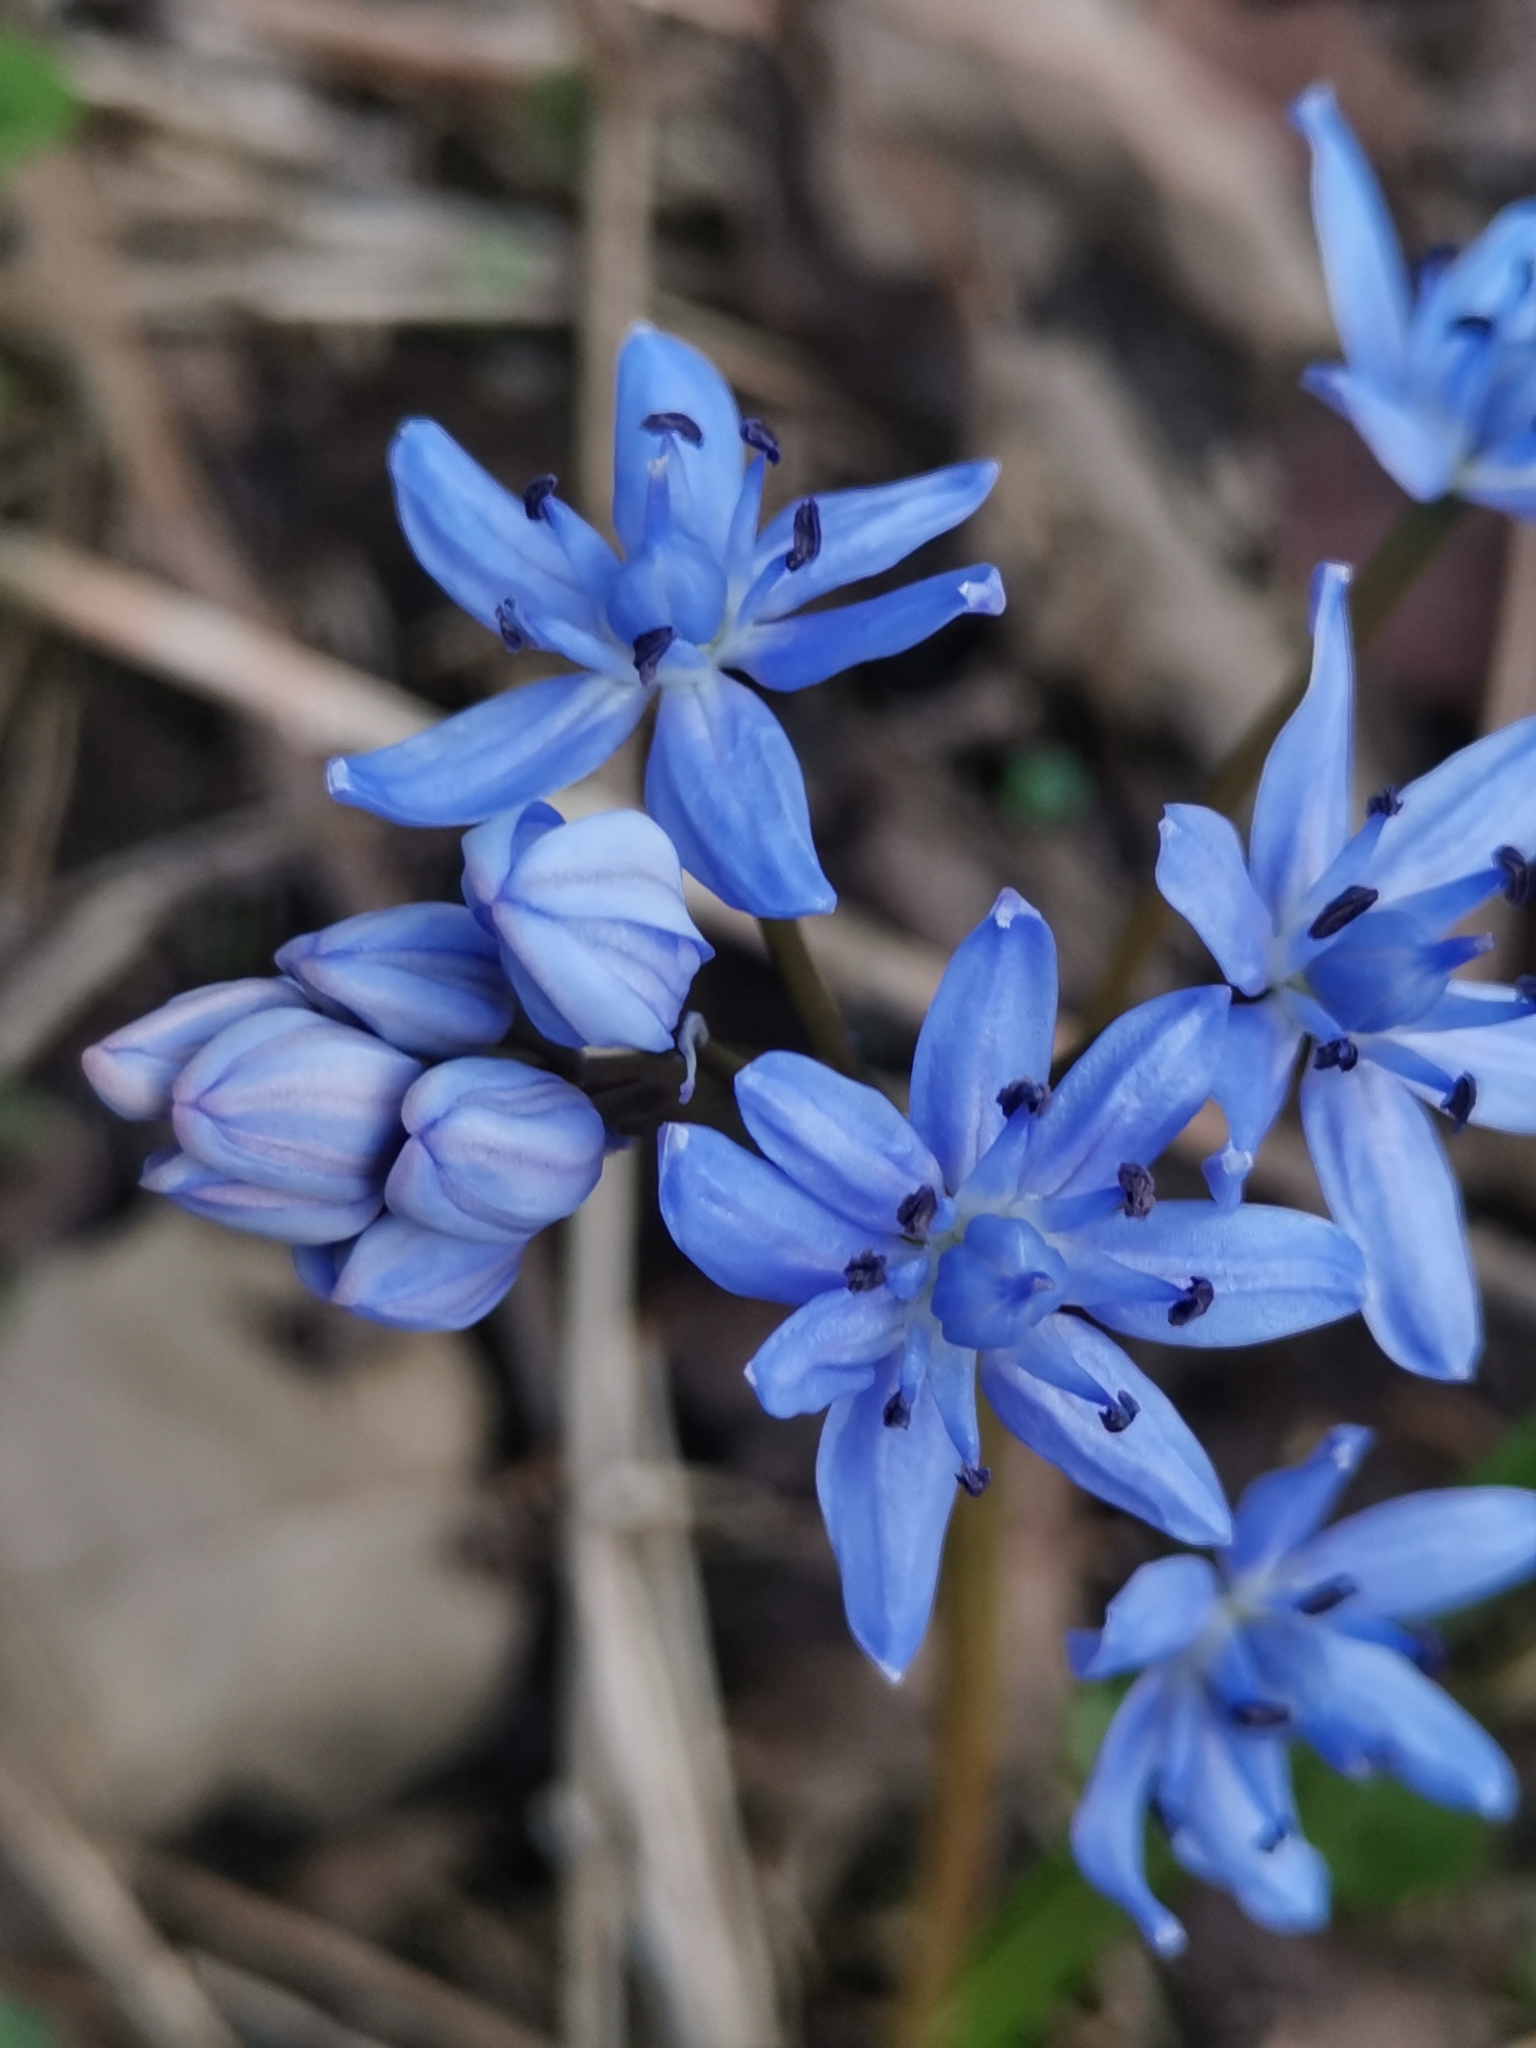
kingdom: Plantae
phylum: Tracheophyta
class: Liliopsida
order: Asparagales
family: Asparagaceae
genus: Scilla
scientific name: Scilla bifolia
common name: Alpine squill
